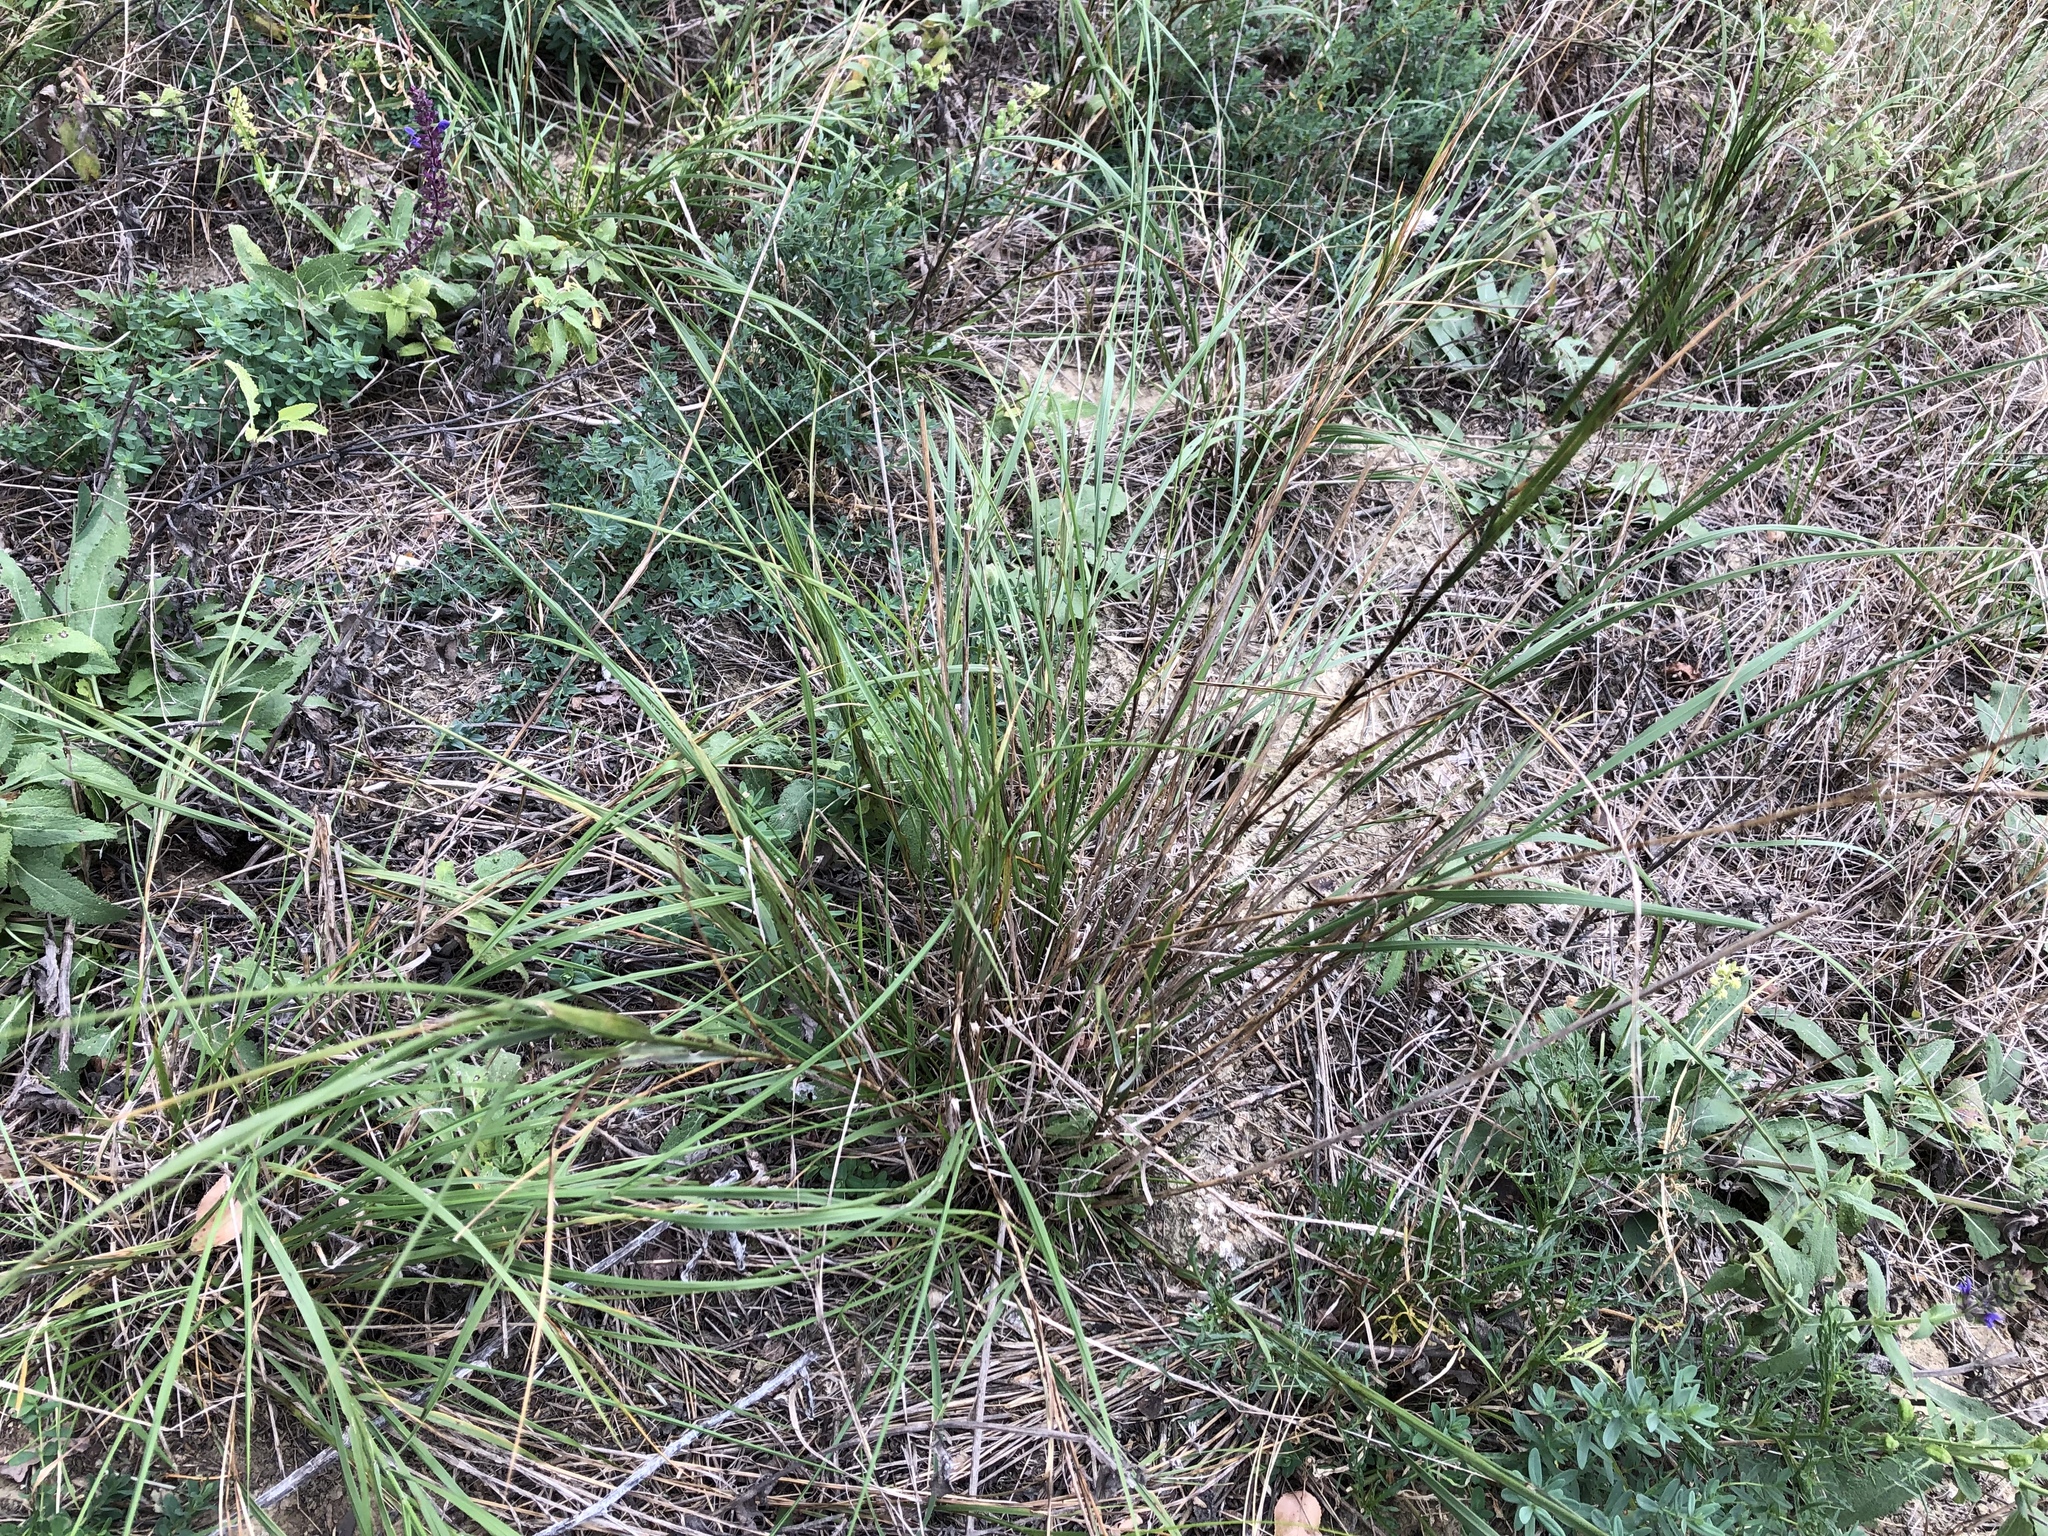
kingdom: Plantae
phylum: Tracheophyta
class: Liliopsida
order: Poales
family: Poaceae
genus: Melica
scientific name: Melica transsilvanica
